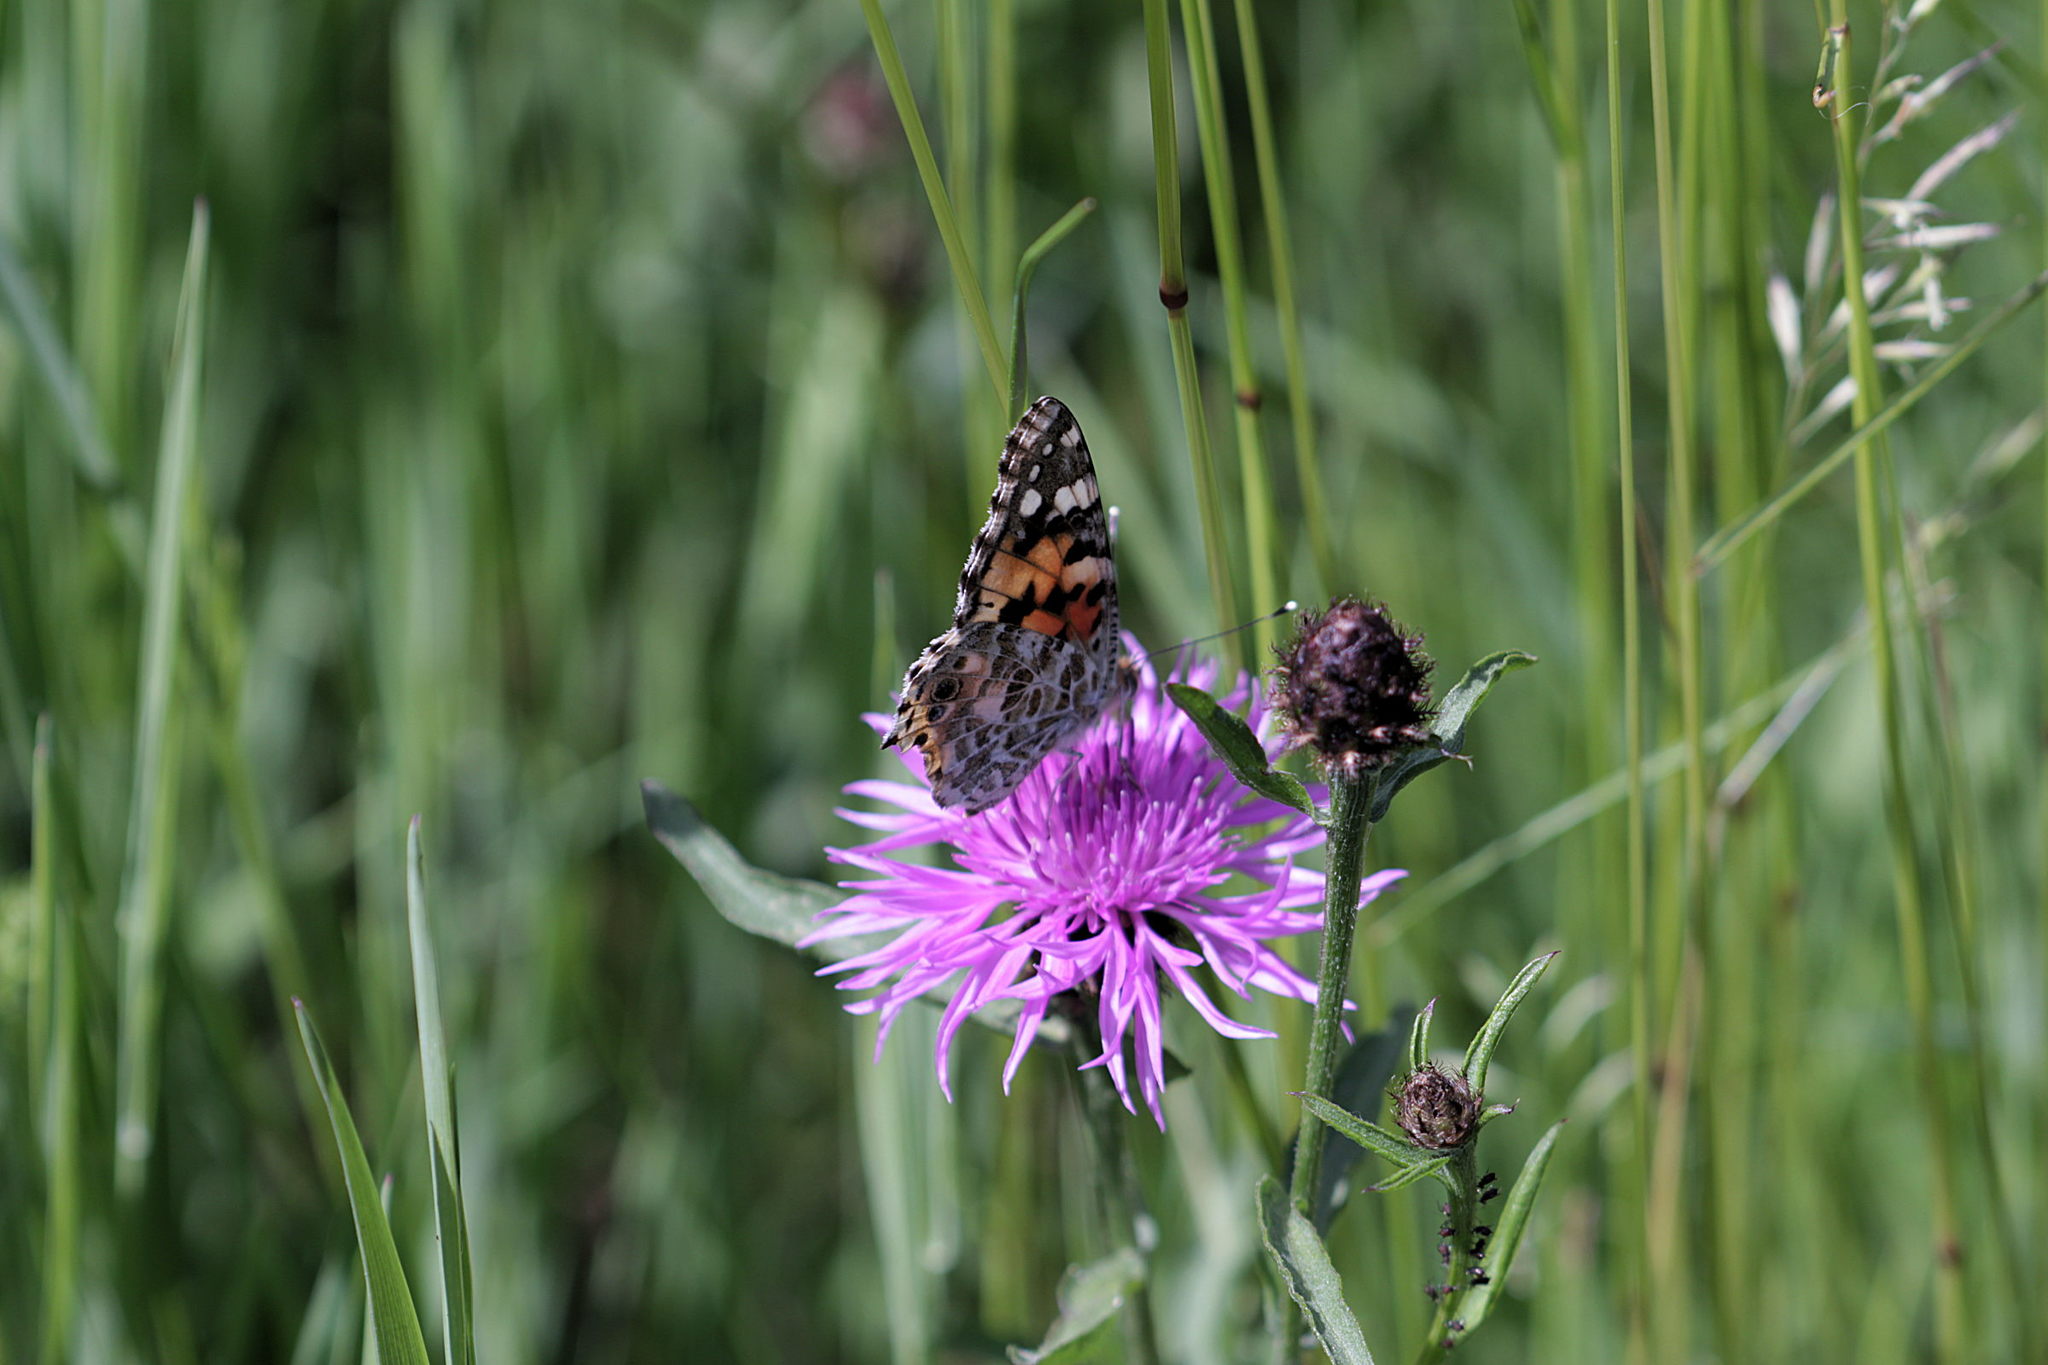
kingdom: Animalia
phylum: Arthropoda
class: Insecta
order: Lepidoptera
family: Nymphalidae
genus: Vanessa
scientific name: Vanessa cardui
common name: Painted lady
